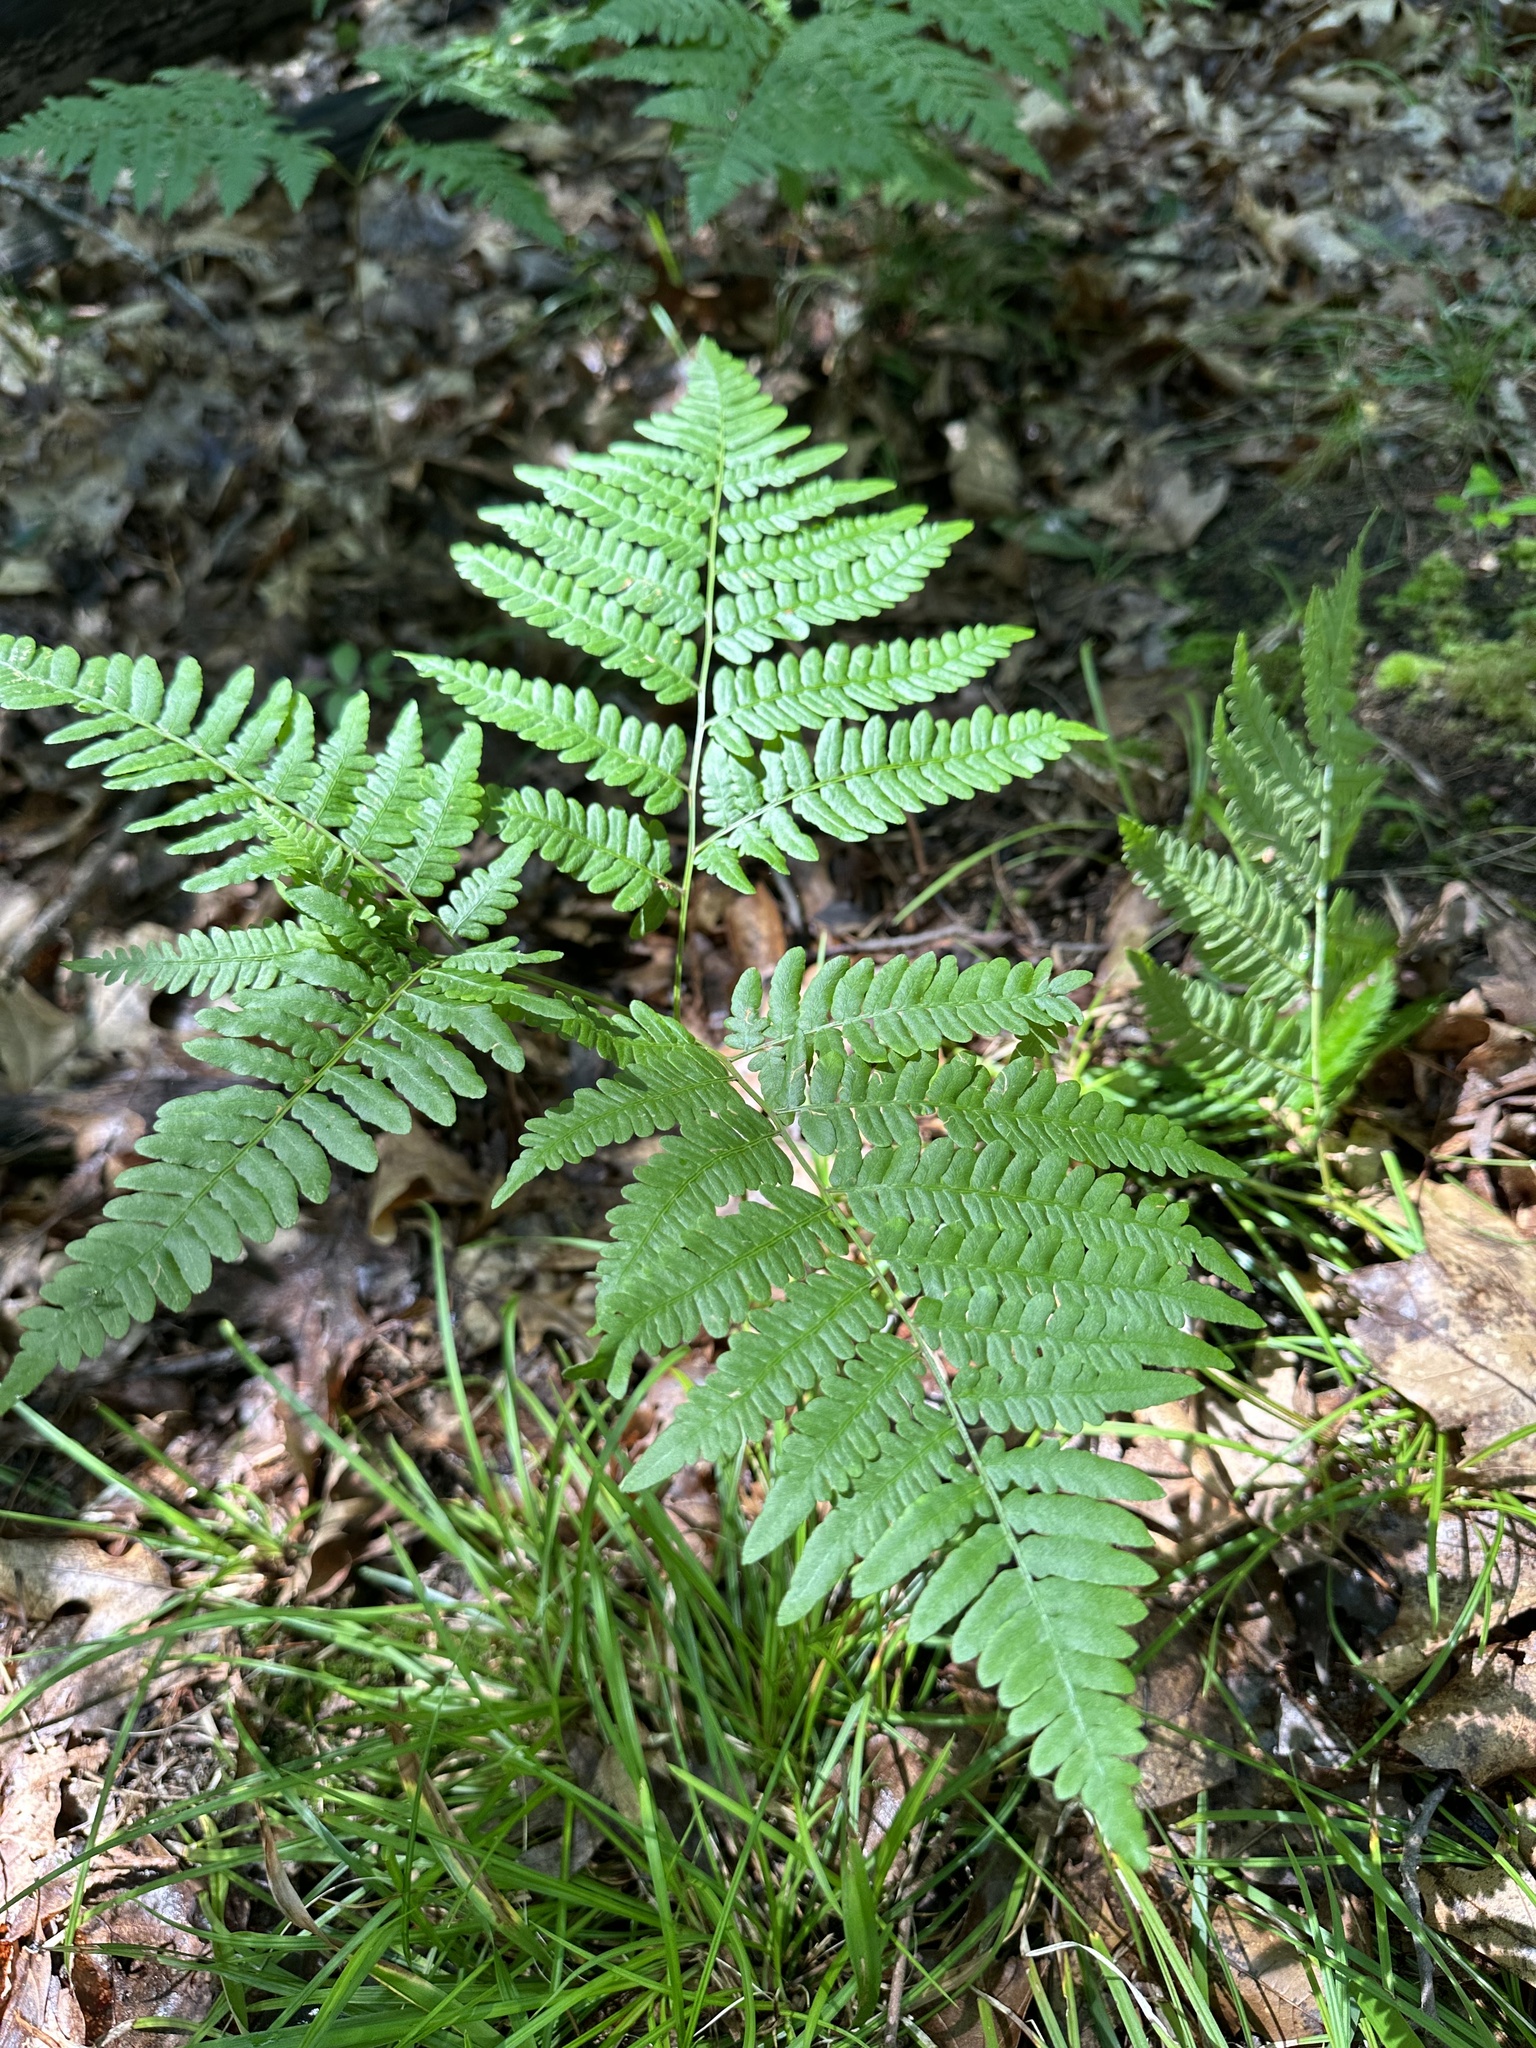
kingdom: Plantae
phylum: Tracheophyta
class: Polypodiopsida
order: Polypodiales
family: Dennstaedtiaceae
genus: Pteridium
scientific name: Pteridium aquilinum
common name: Bracken
